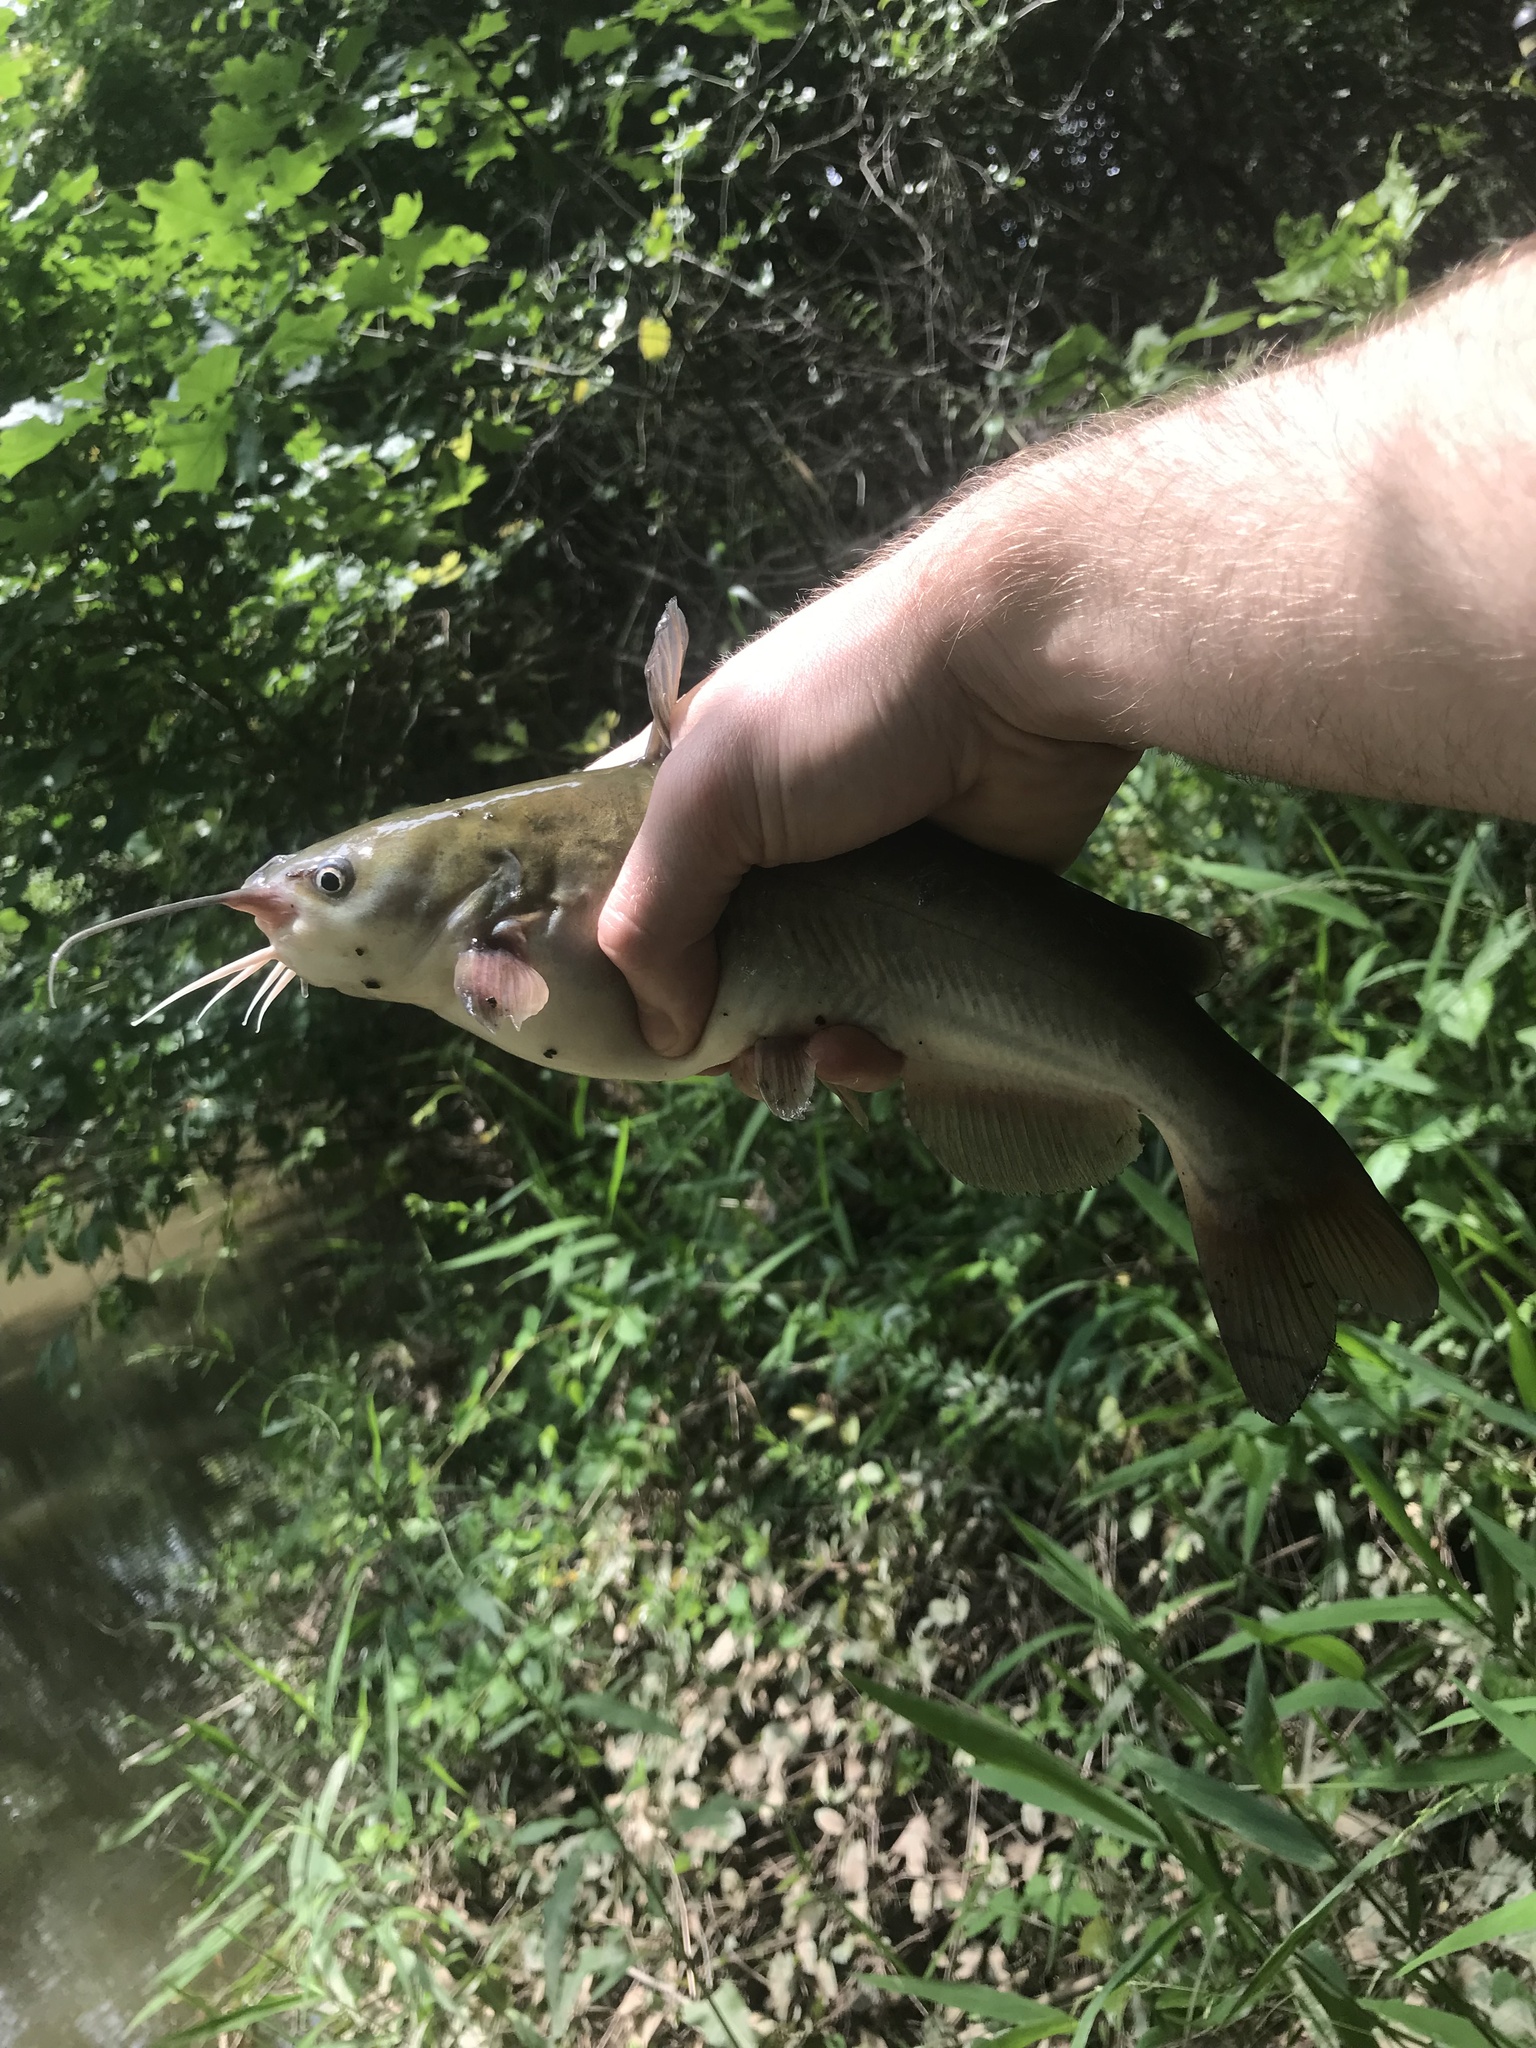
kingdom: Animalia
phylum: Chordata
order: Siluriformes
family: Ictaluridae
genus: Ameiurus
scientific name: Ameiurus catus
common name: White catfish
